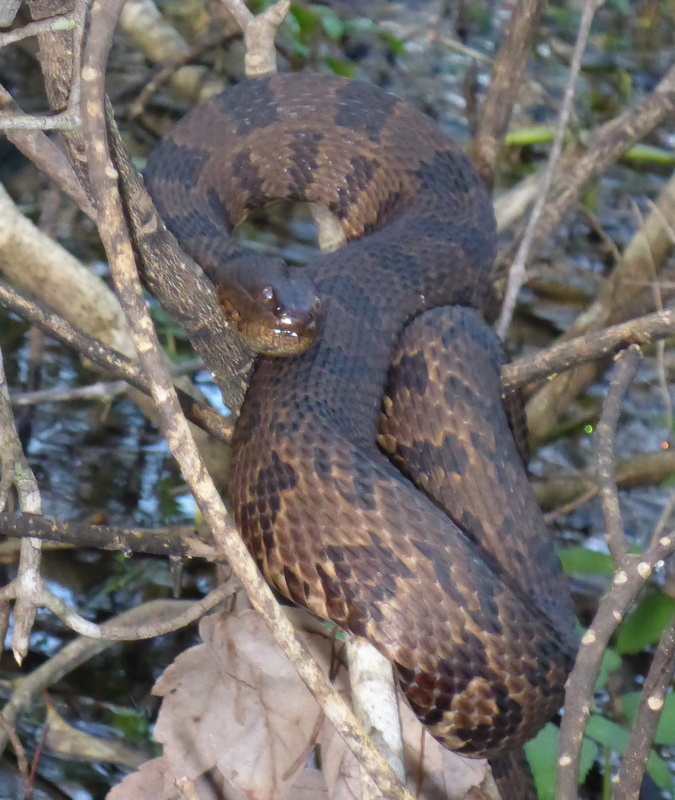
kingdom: Animalia
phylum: Chordata
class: Squamata
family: Colubridae
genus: Nerodia
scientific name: Nerodia taxispilota
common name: Brown water snake
